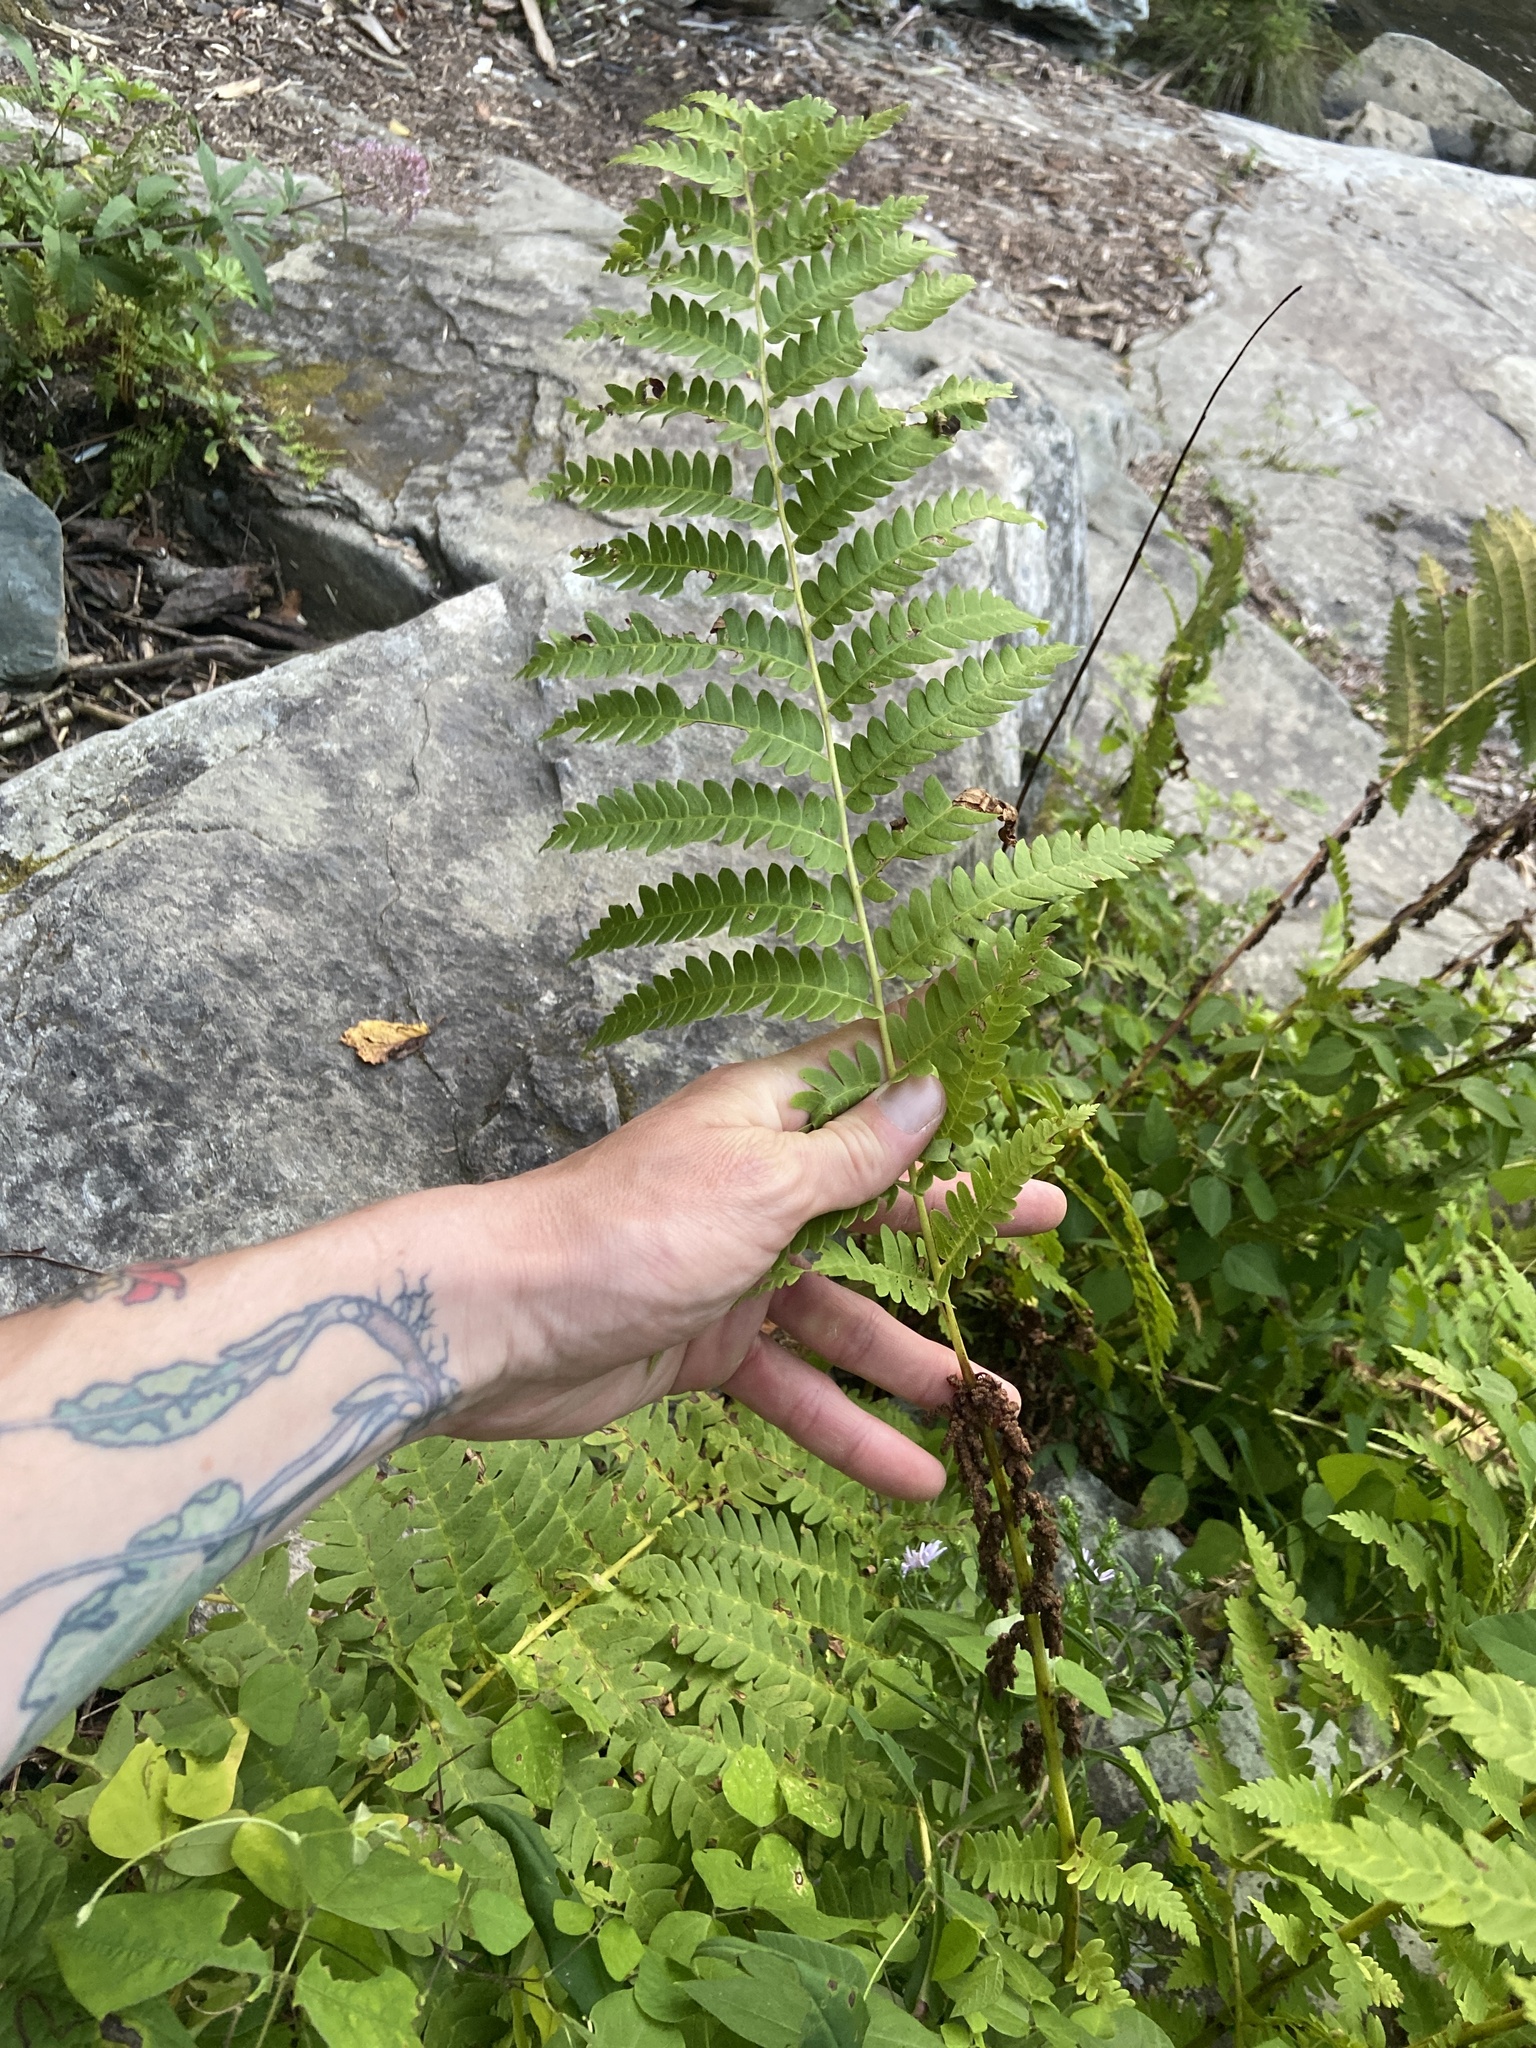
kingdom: Plantae
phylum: Tracheophyta
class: Polypodiopsida
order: Osmundales
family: Osmundaceae
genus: Claytosmunda
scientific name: Claytosmunda claytoniana
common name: Clayton's fern
